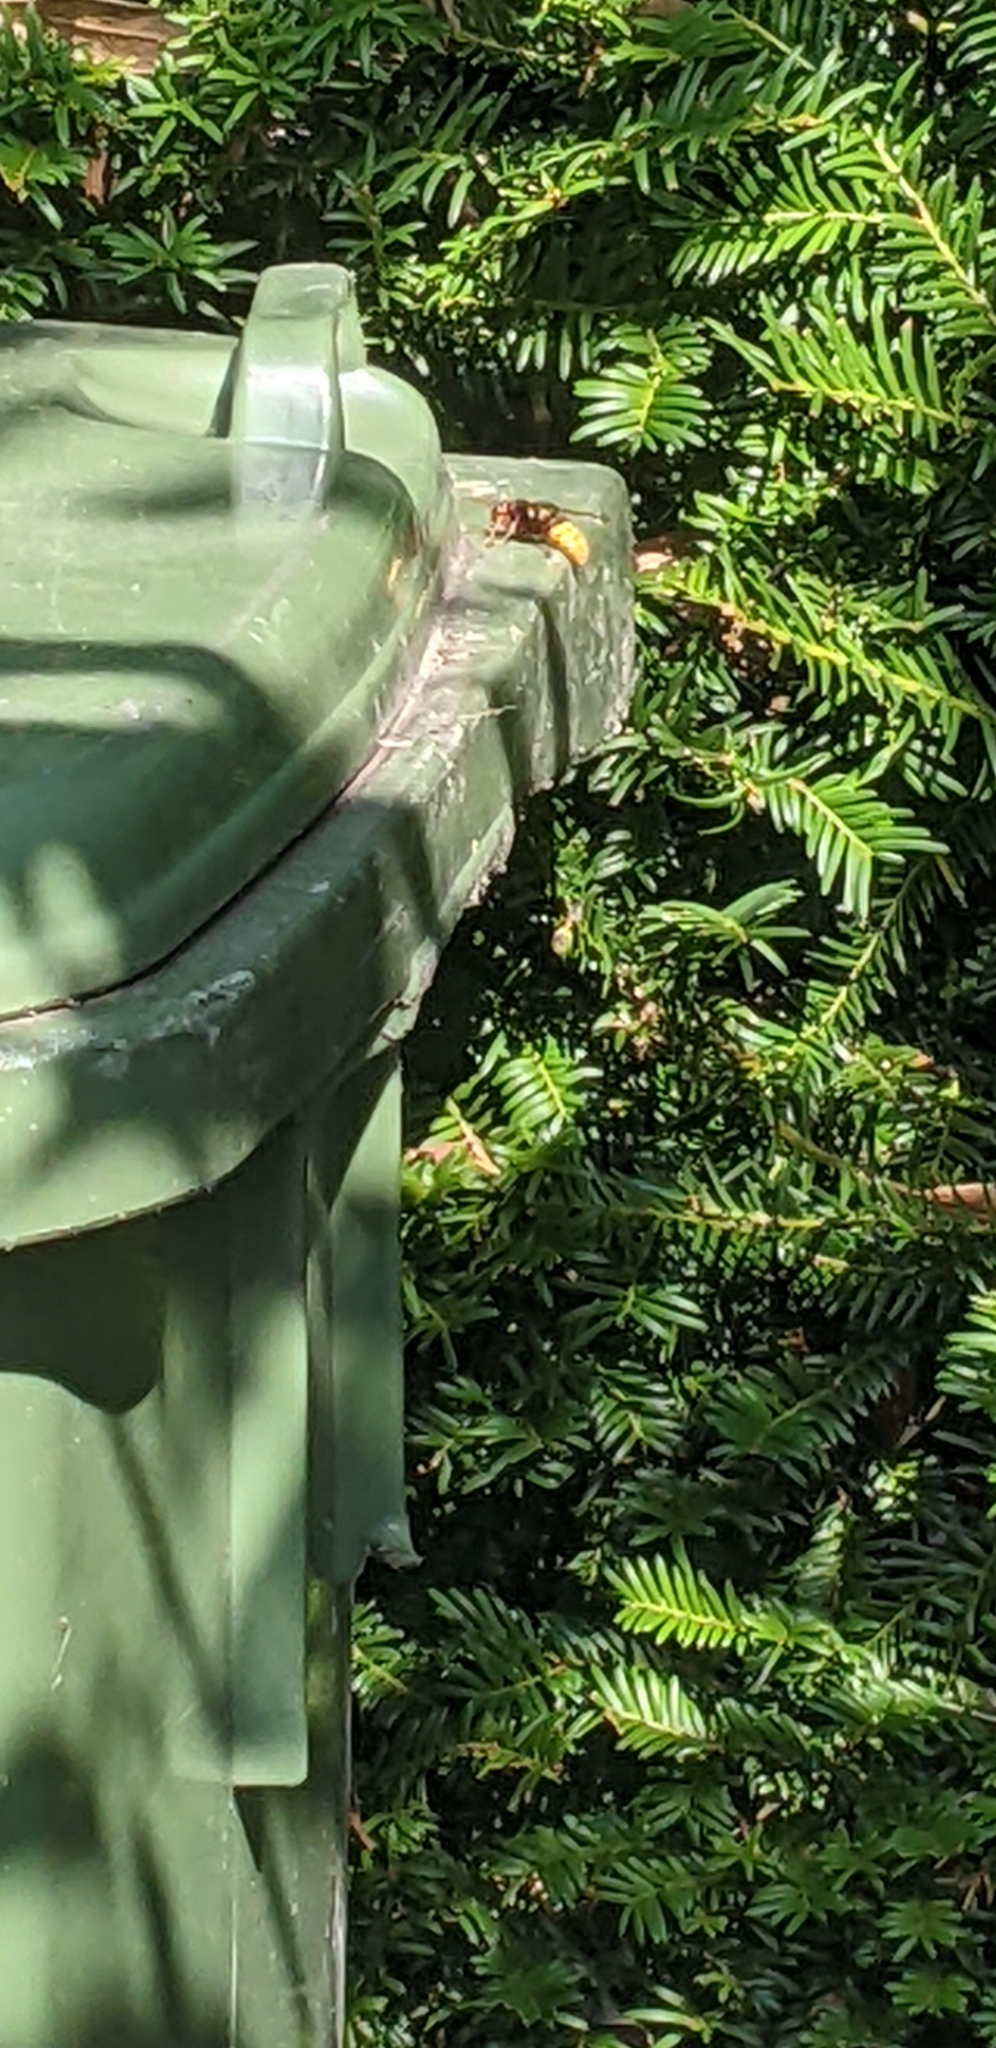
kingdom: Animalia
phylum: Arthropoda
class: Insecta
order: Hymenoptera
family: Vespidae
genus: Vespa
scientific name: Vespa crabro
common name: Hornet
